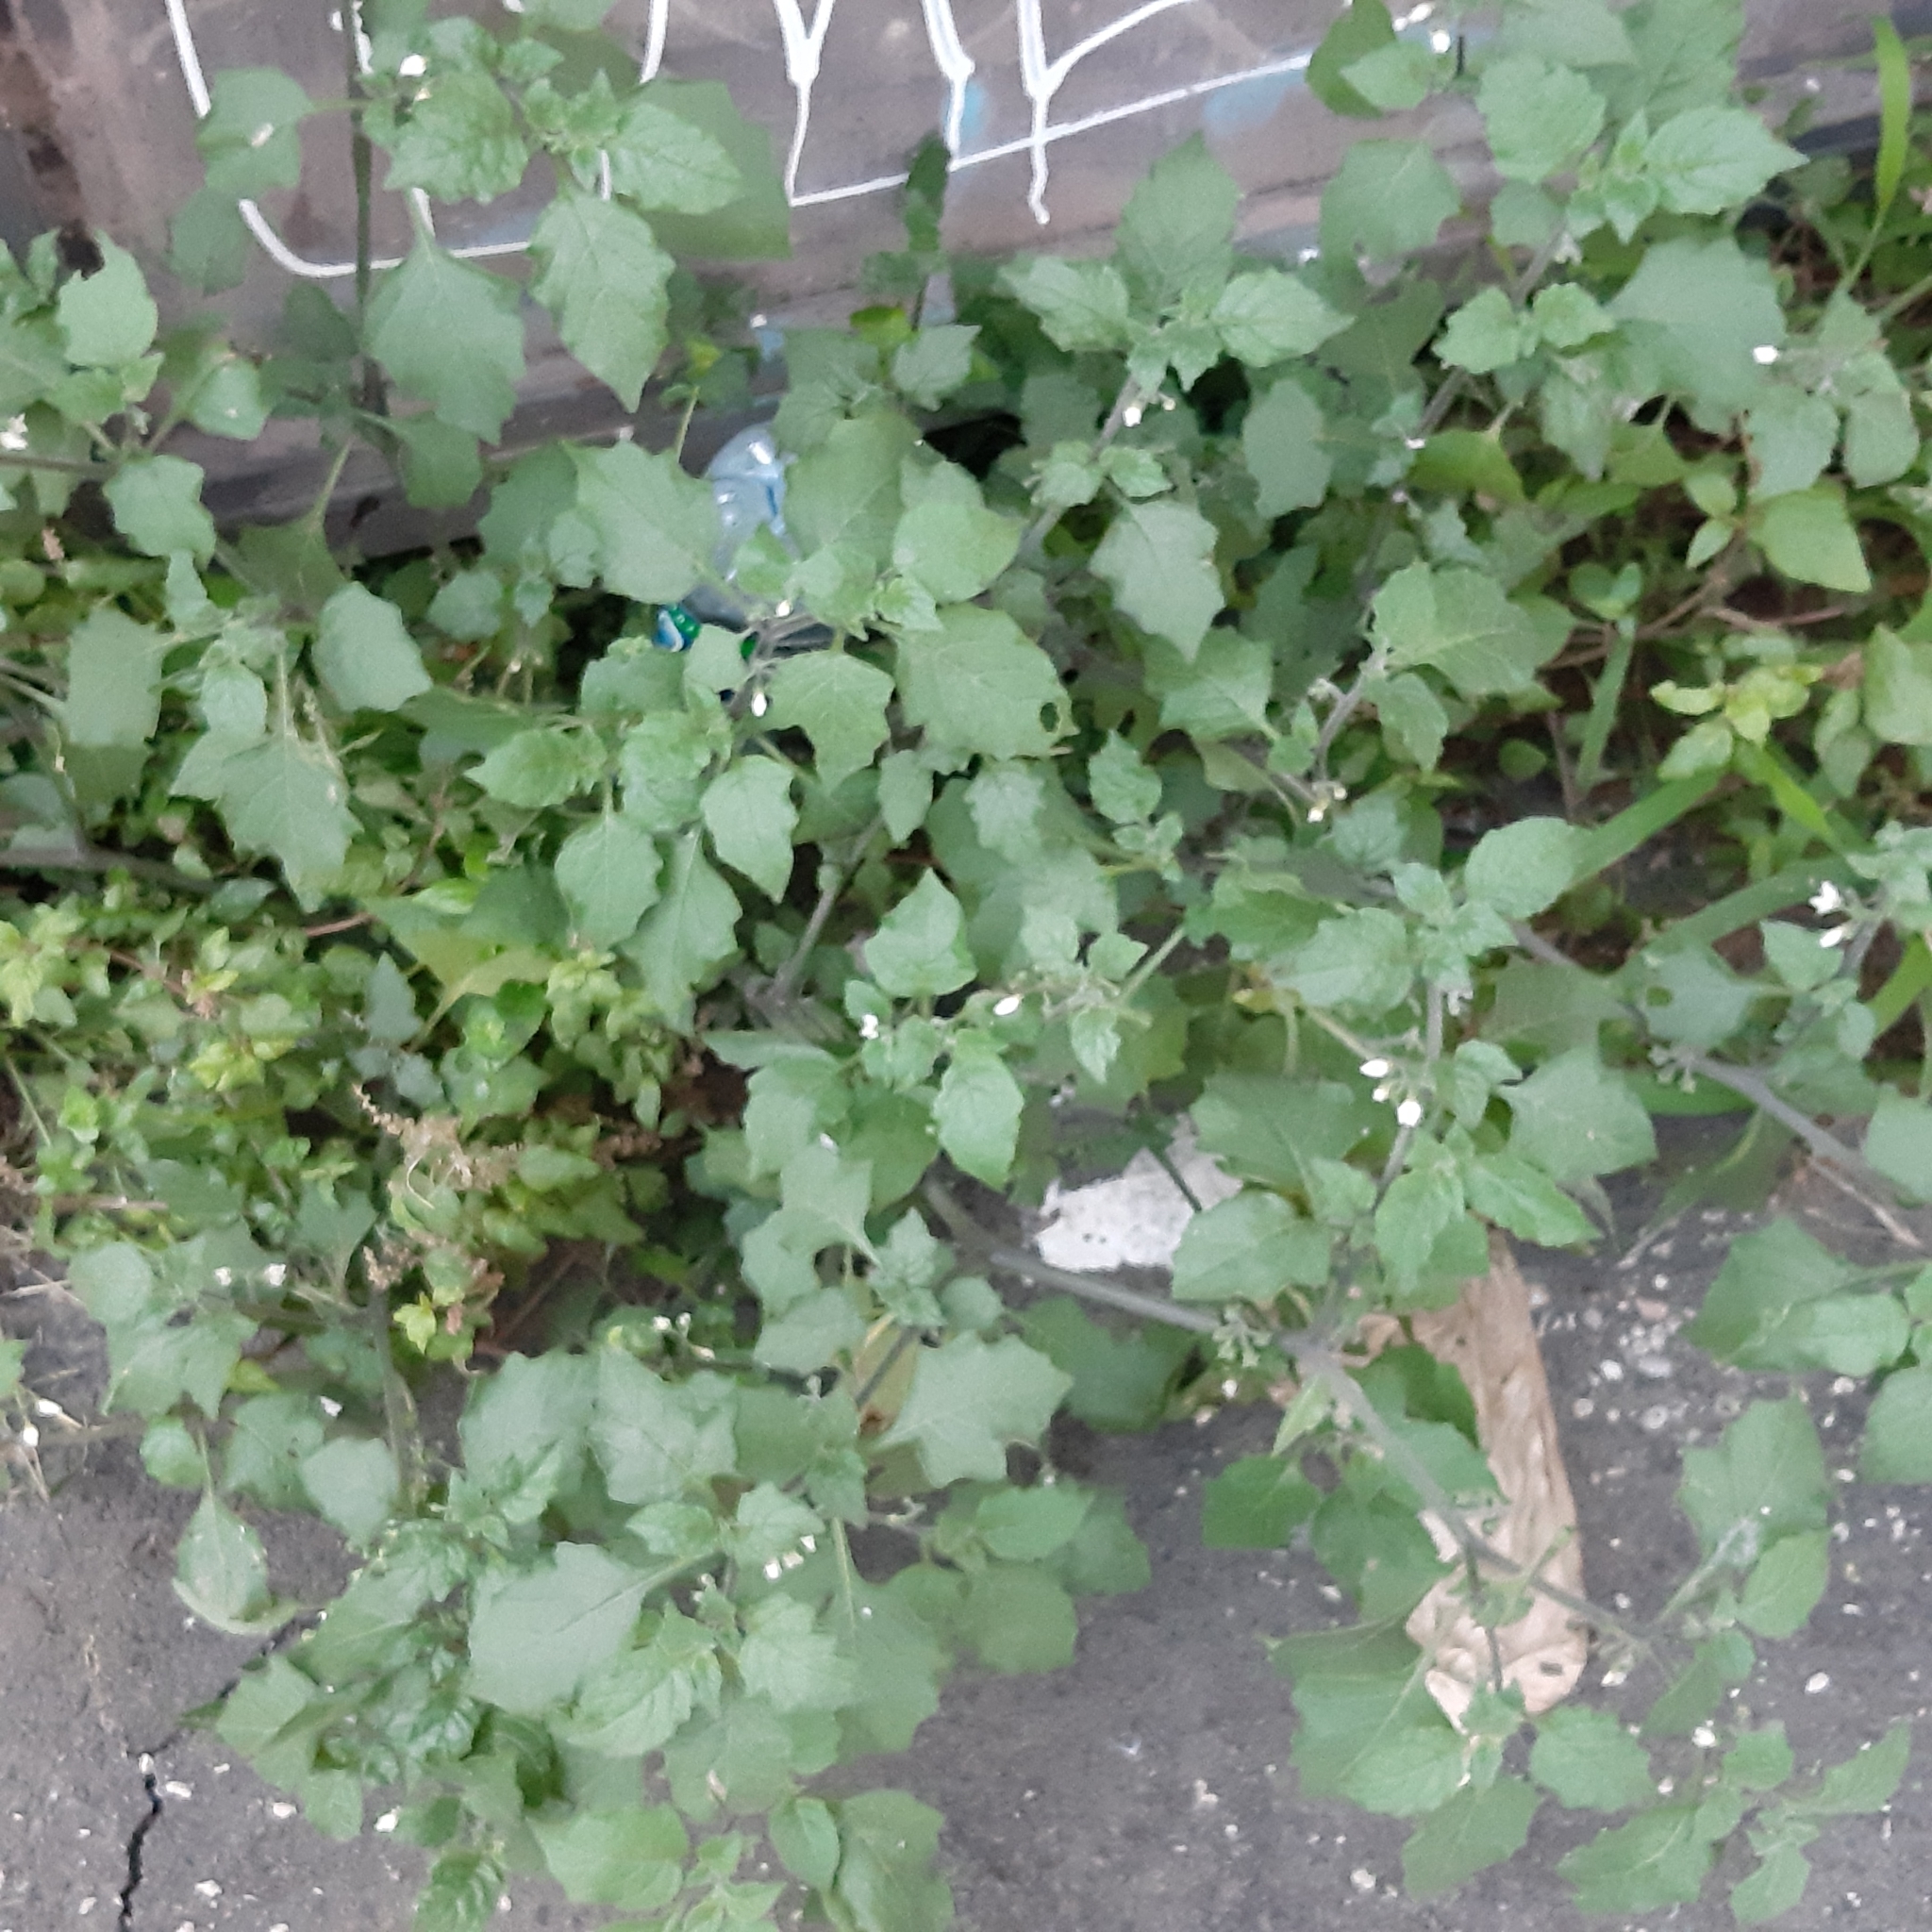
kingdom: Plantae
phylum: Tracheophyta
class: Magnoliopsida
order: Solanales
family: Solanaceae
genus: Solanum
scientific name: Solanum nigrum
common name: Black nightshade
